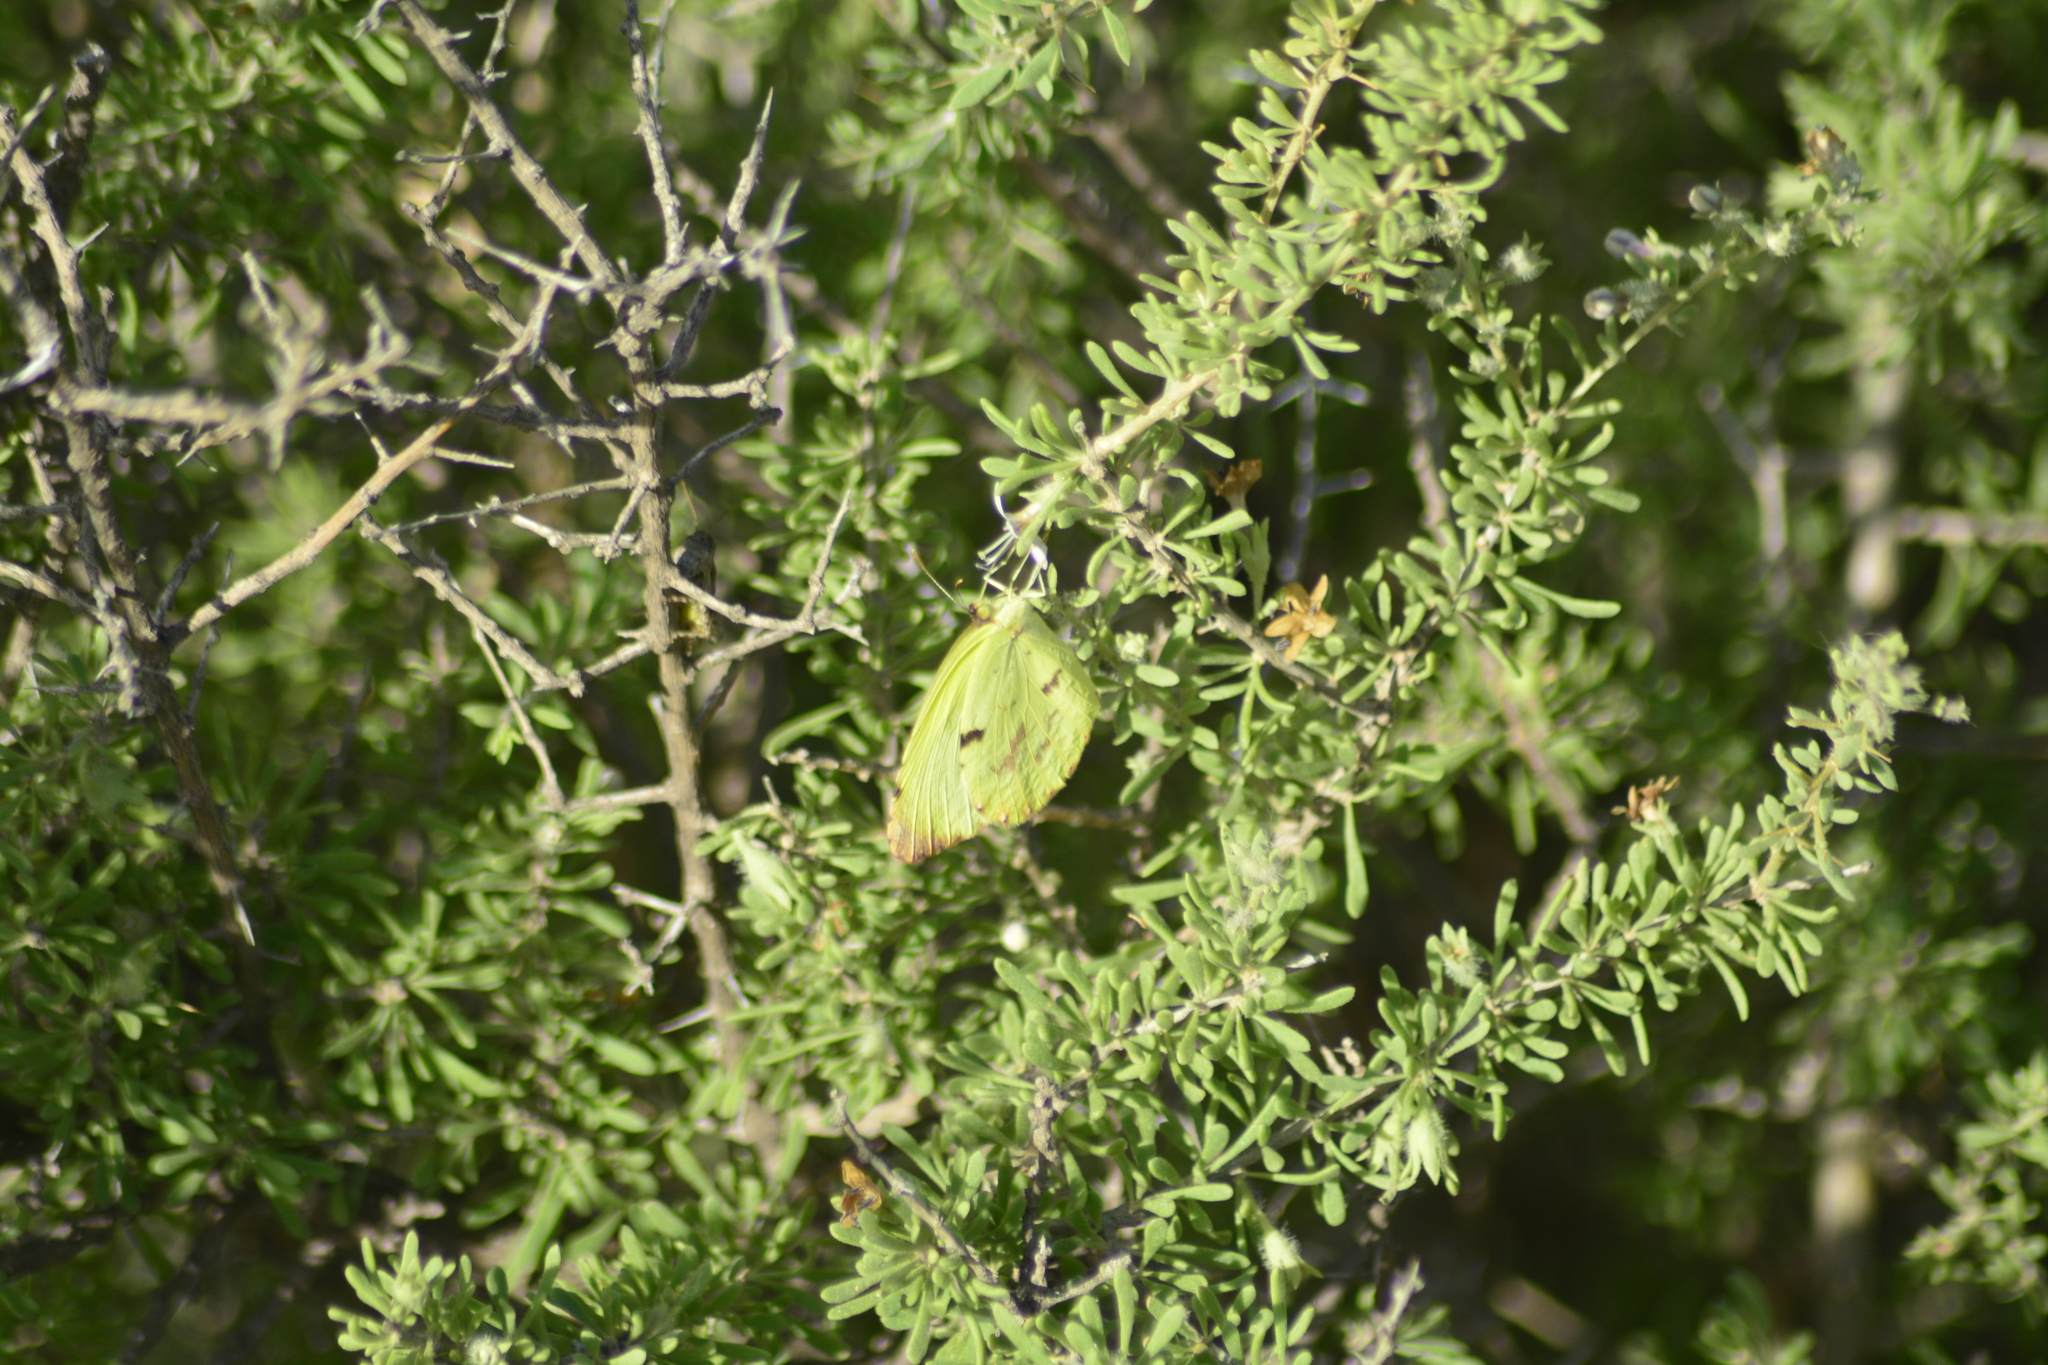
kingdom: Animalia
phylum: Arthropoda
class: Insecta
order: Lepidoptera
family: Pieridae
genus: Teriocolias
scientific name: Teriocolias
